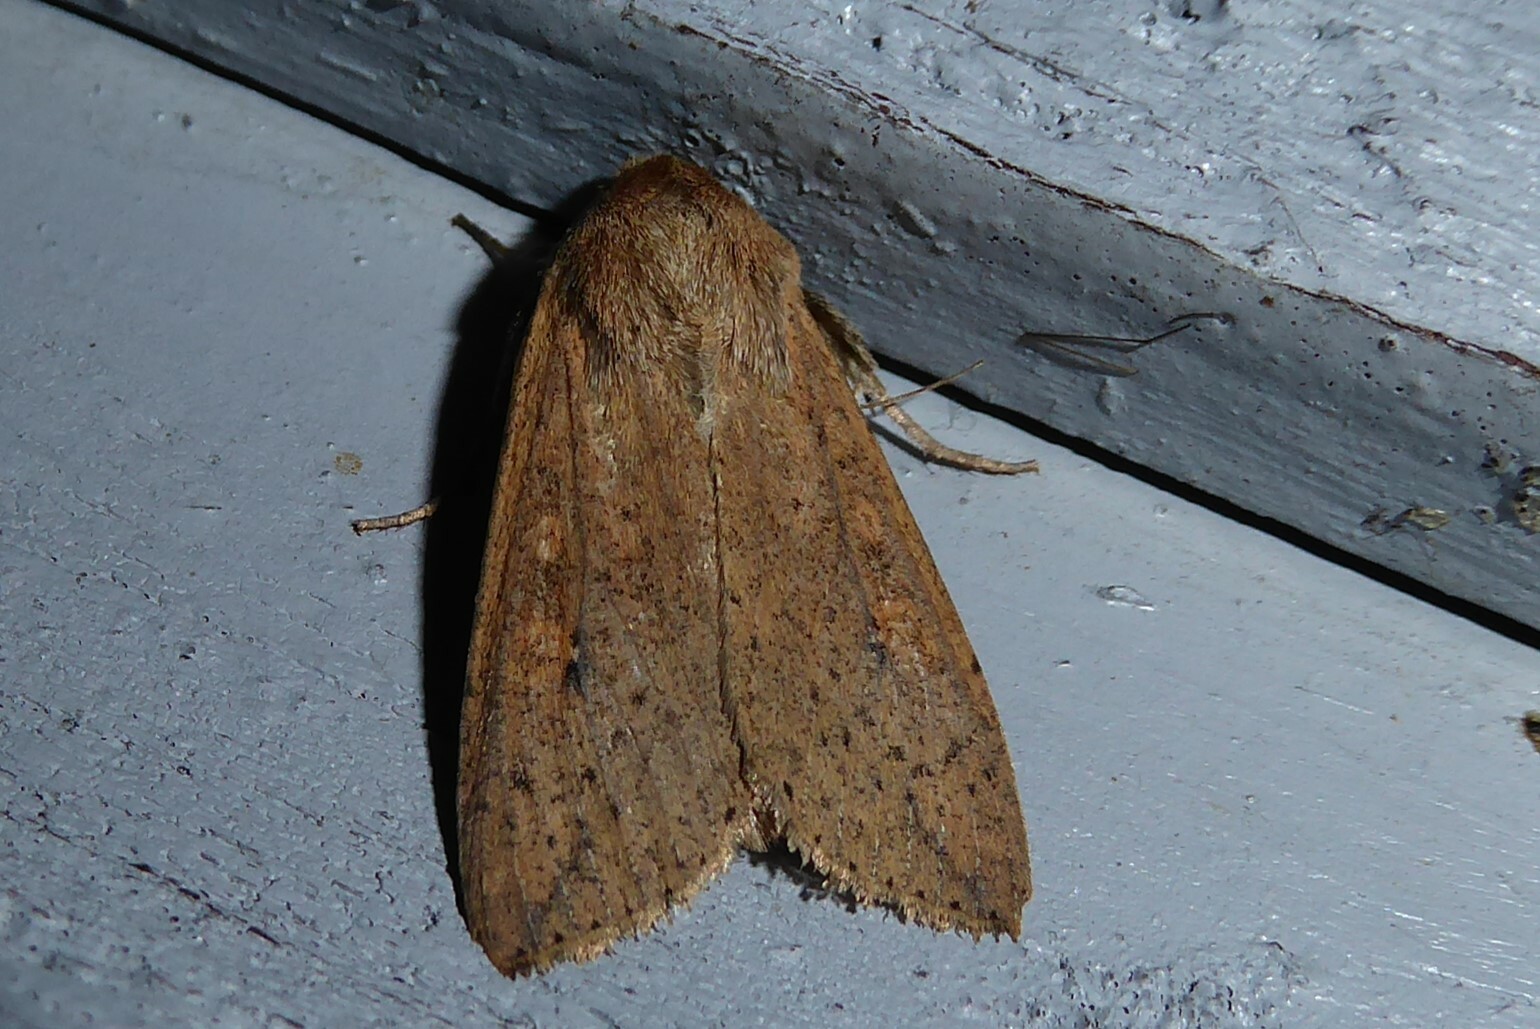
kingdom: Animalia
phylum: Arthropoda
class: Insecta
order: Lepidoptera
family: Noctuidae
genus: Mythimna
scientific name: Mythimna separata
